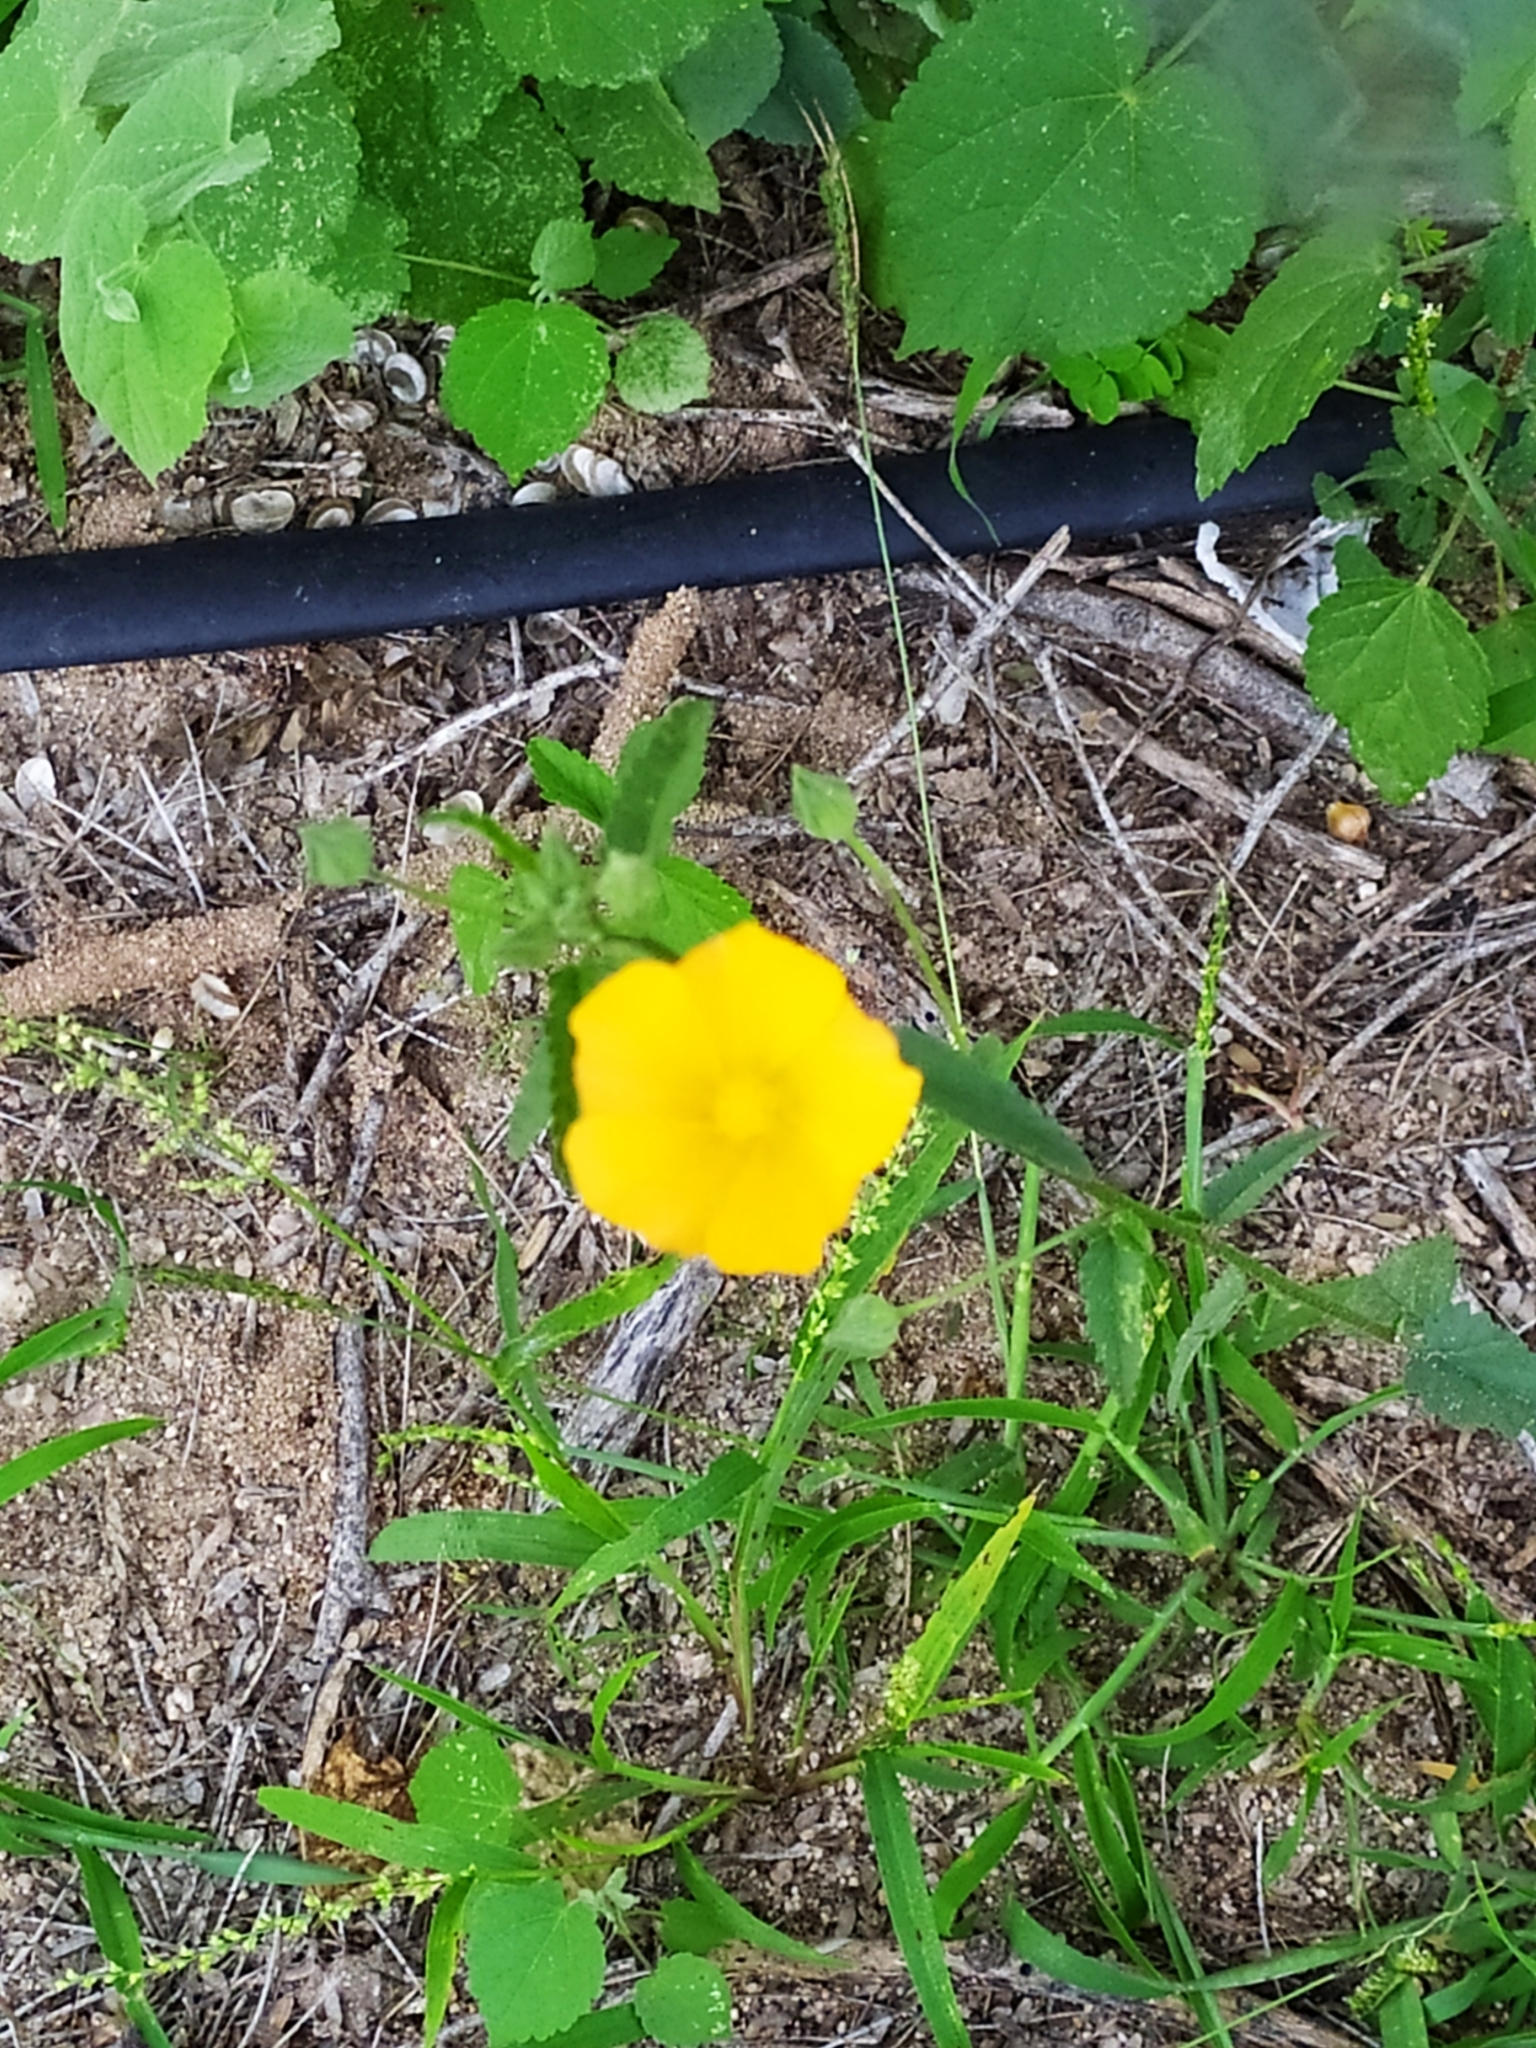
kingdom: Plantae
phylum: Tracheophyta
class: Magnoliopsida
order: Malvales
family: Malvaceae
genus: Sida
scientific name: Sida xanti
